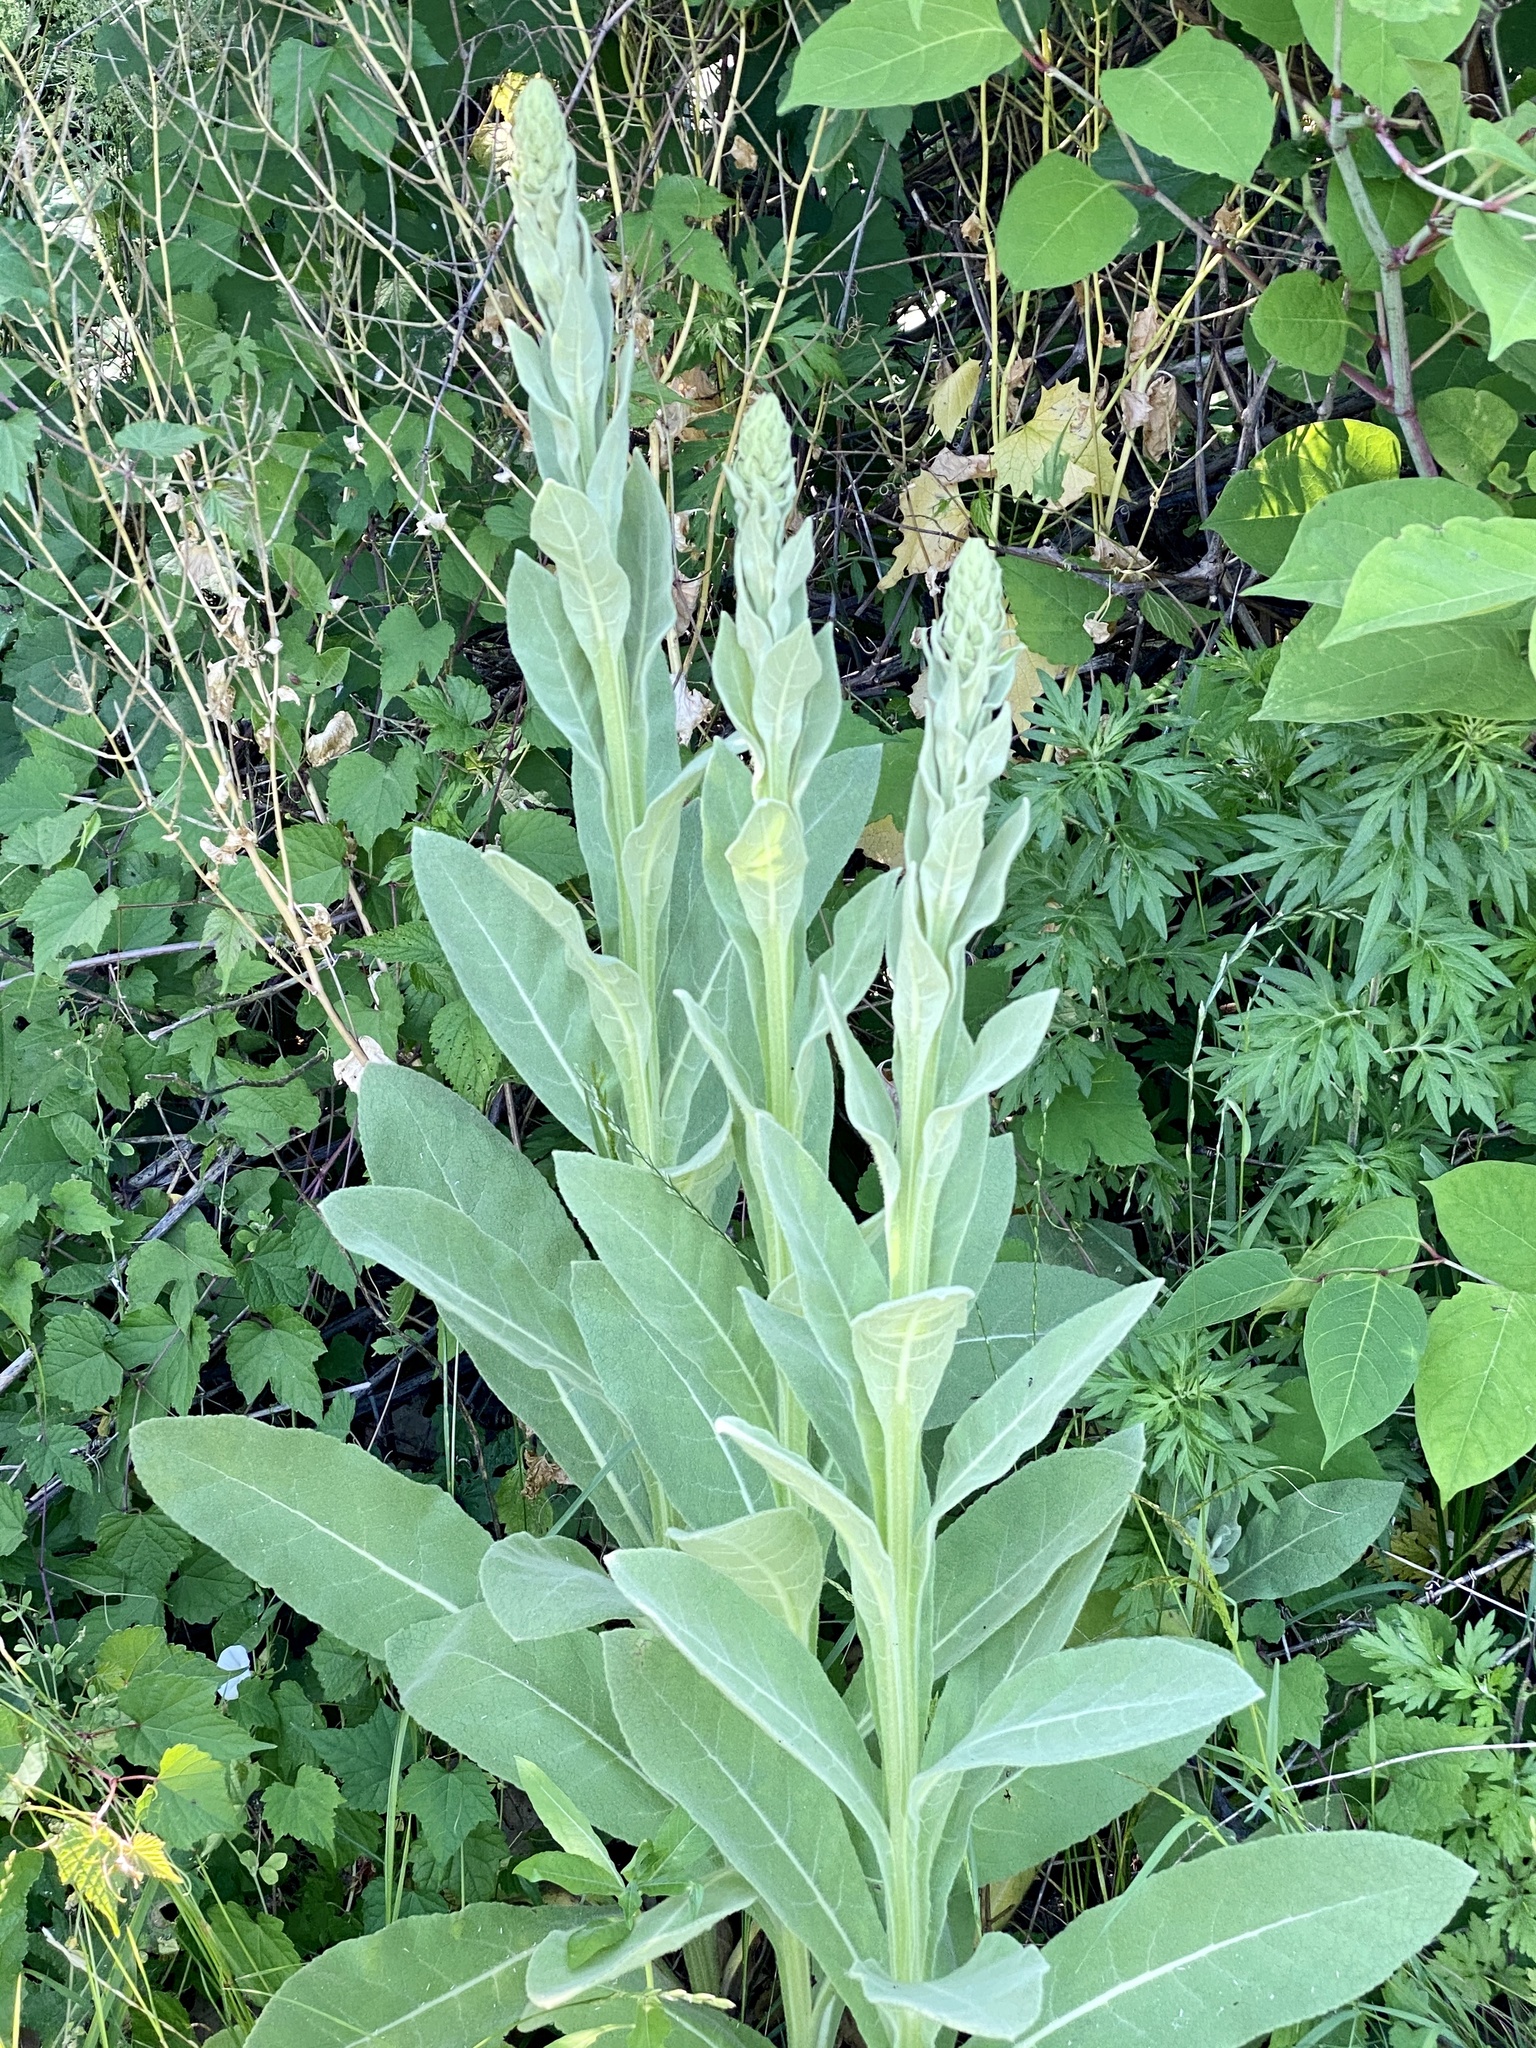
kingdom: Plantae
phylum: Tracheophyta
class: Magnoliopsida
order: Lamiales
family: Scrophulariaceae
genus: Verbascum
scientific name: Verbascum thapsus
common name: Common mullein
